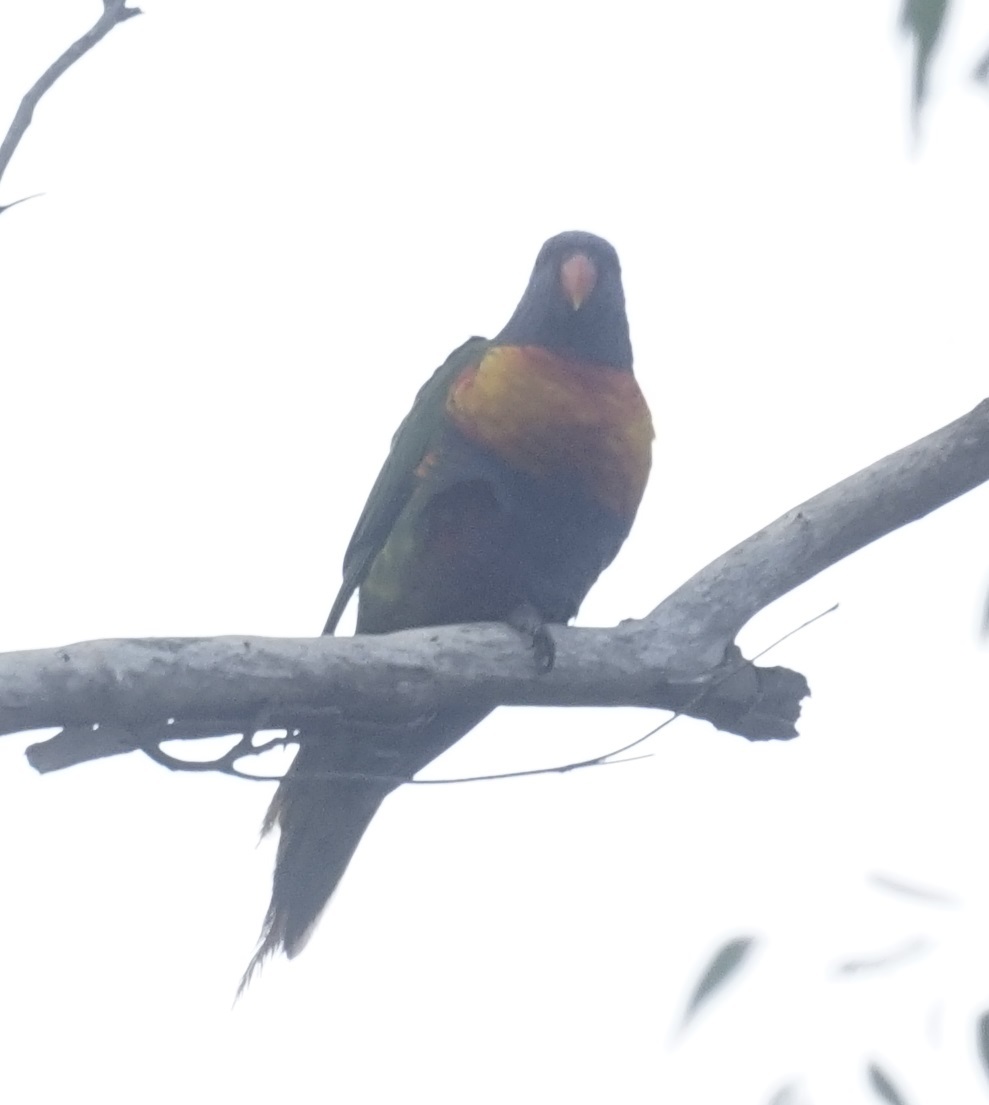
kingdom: Animalia
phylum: Chordata
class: Aves
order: Psittaciformes
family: Psittacidae
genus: Trichoglossus
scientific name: Trichoglossus haematodus
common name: Coconut lorikeet
